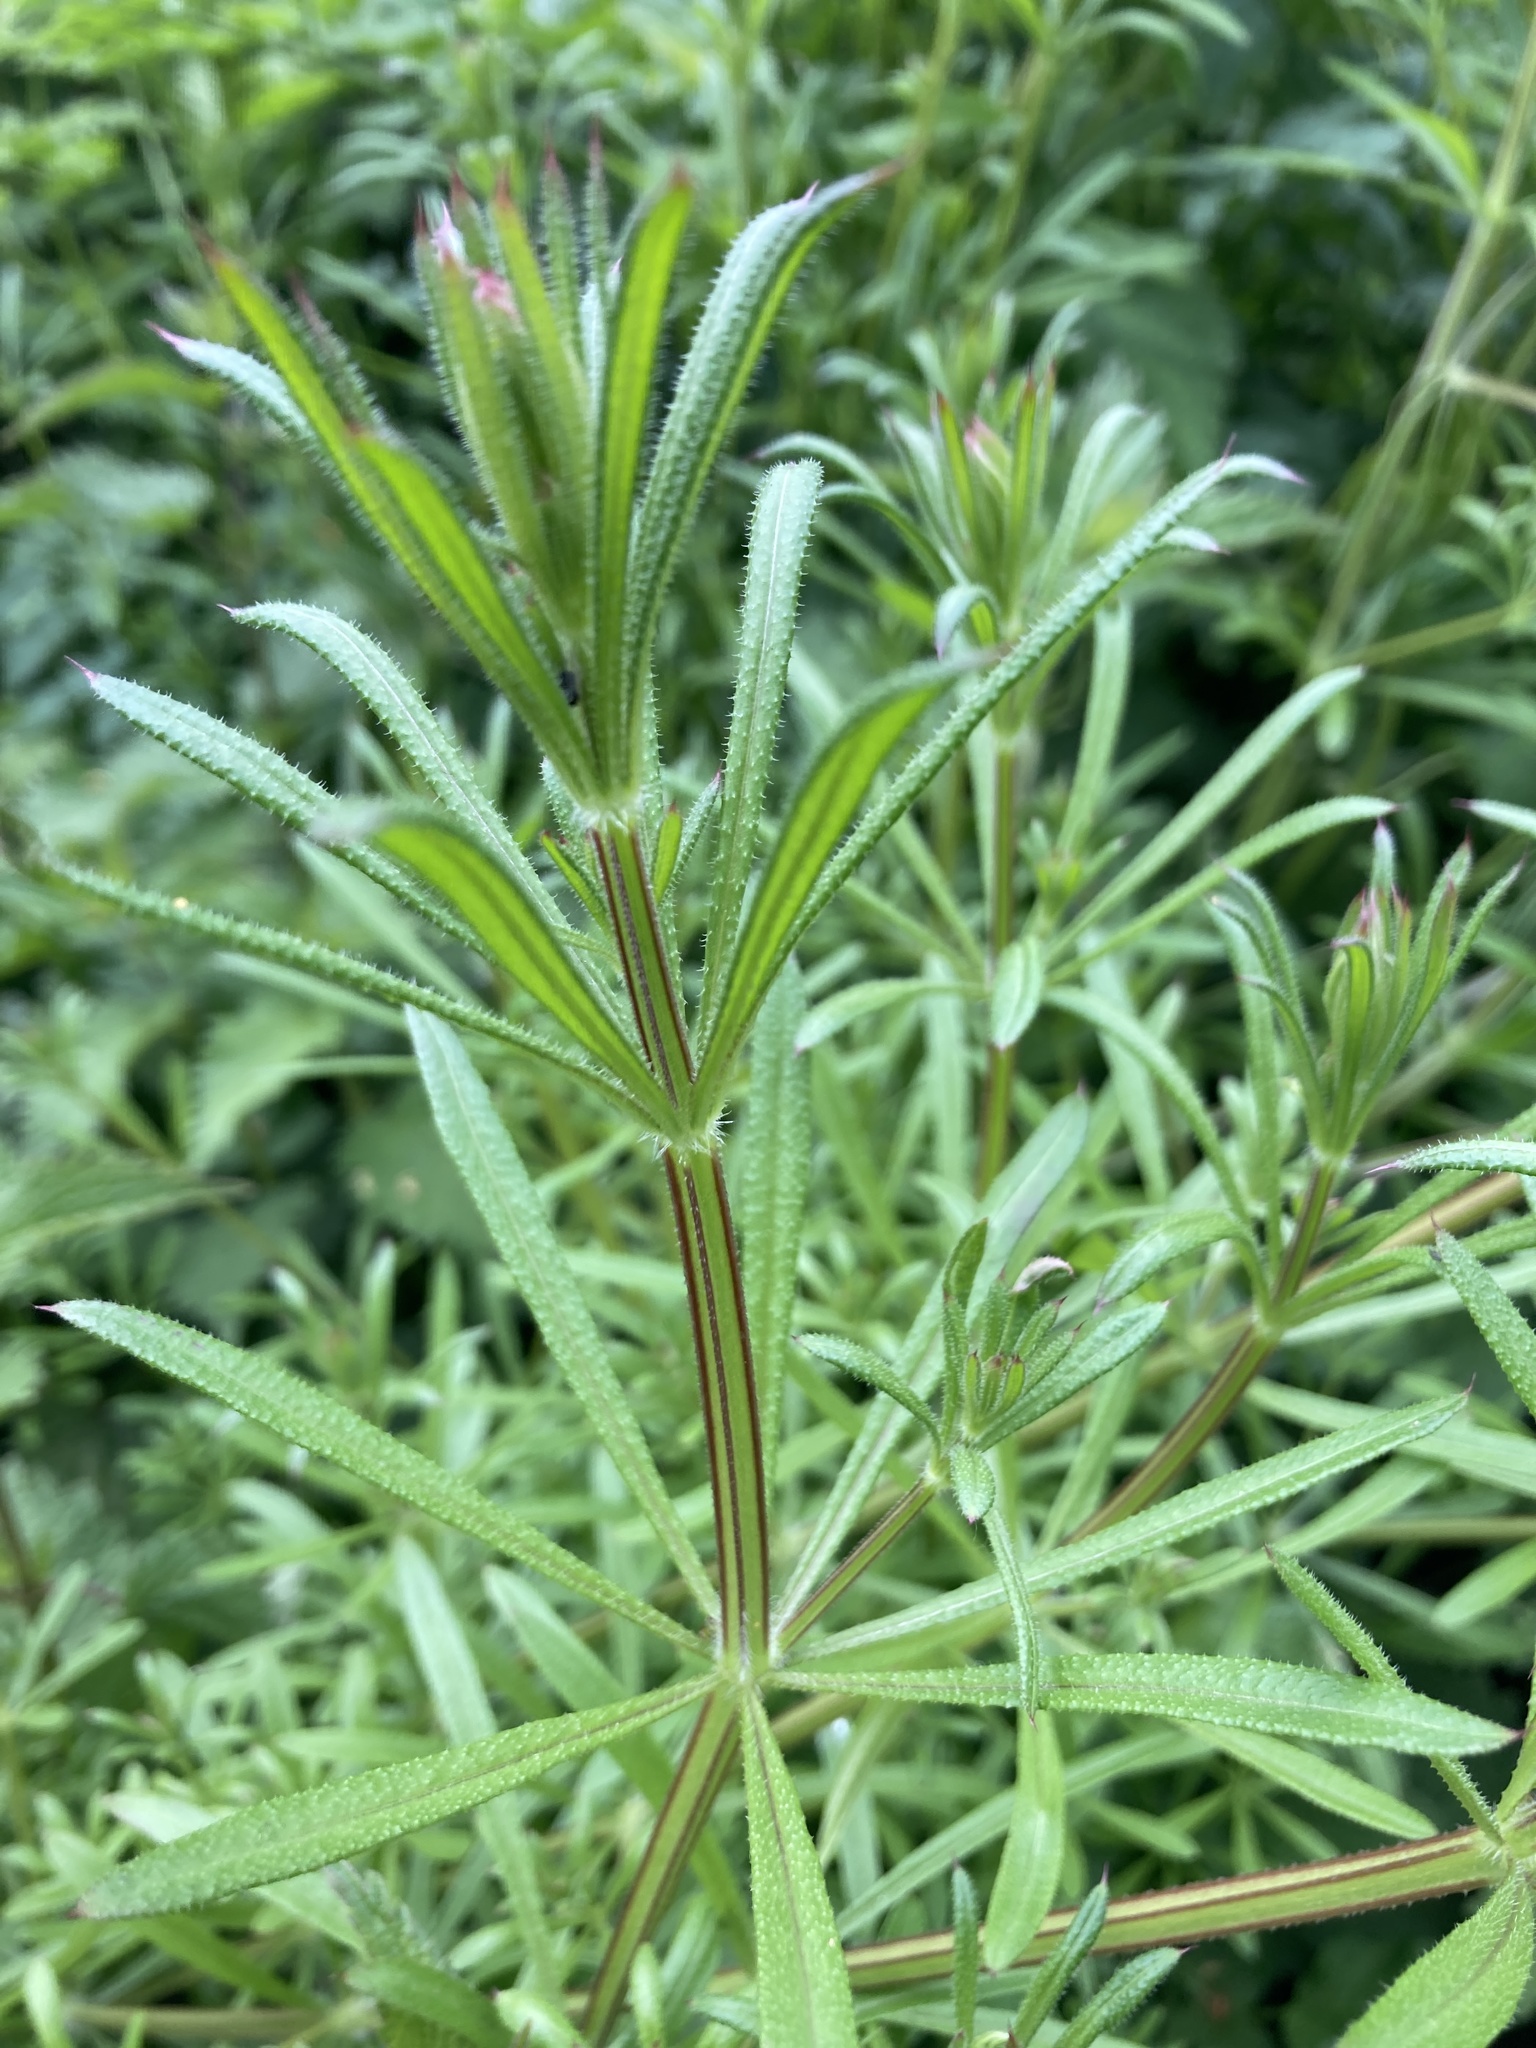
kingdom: Plantae
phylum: Tracheophyta
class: Magnoliopsida
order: Gentianales
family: Rubiaceae
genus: Galium
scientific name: Galium aparine
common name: Cleavers
